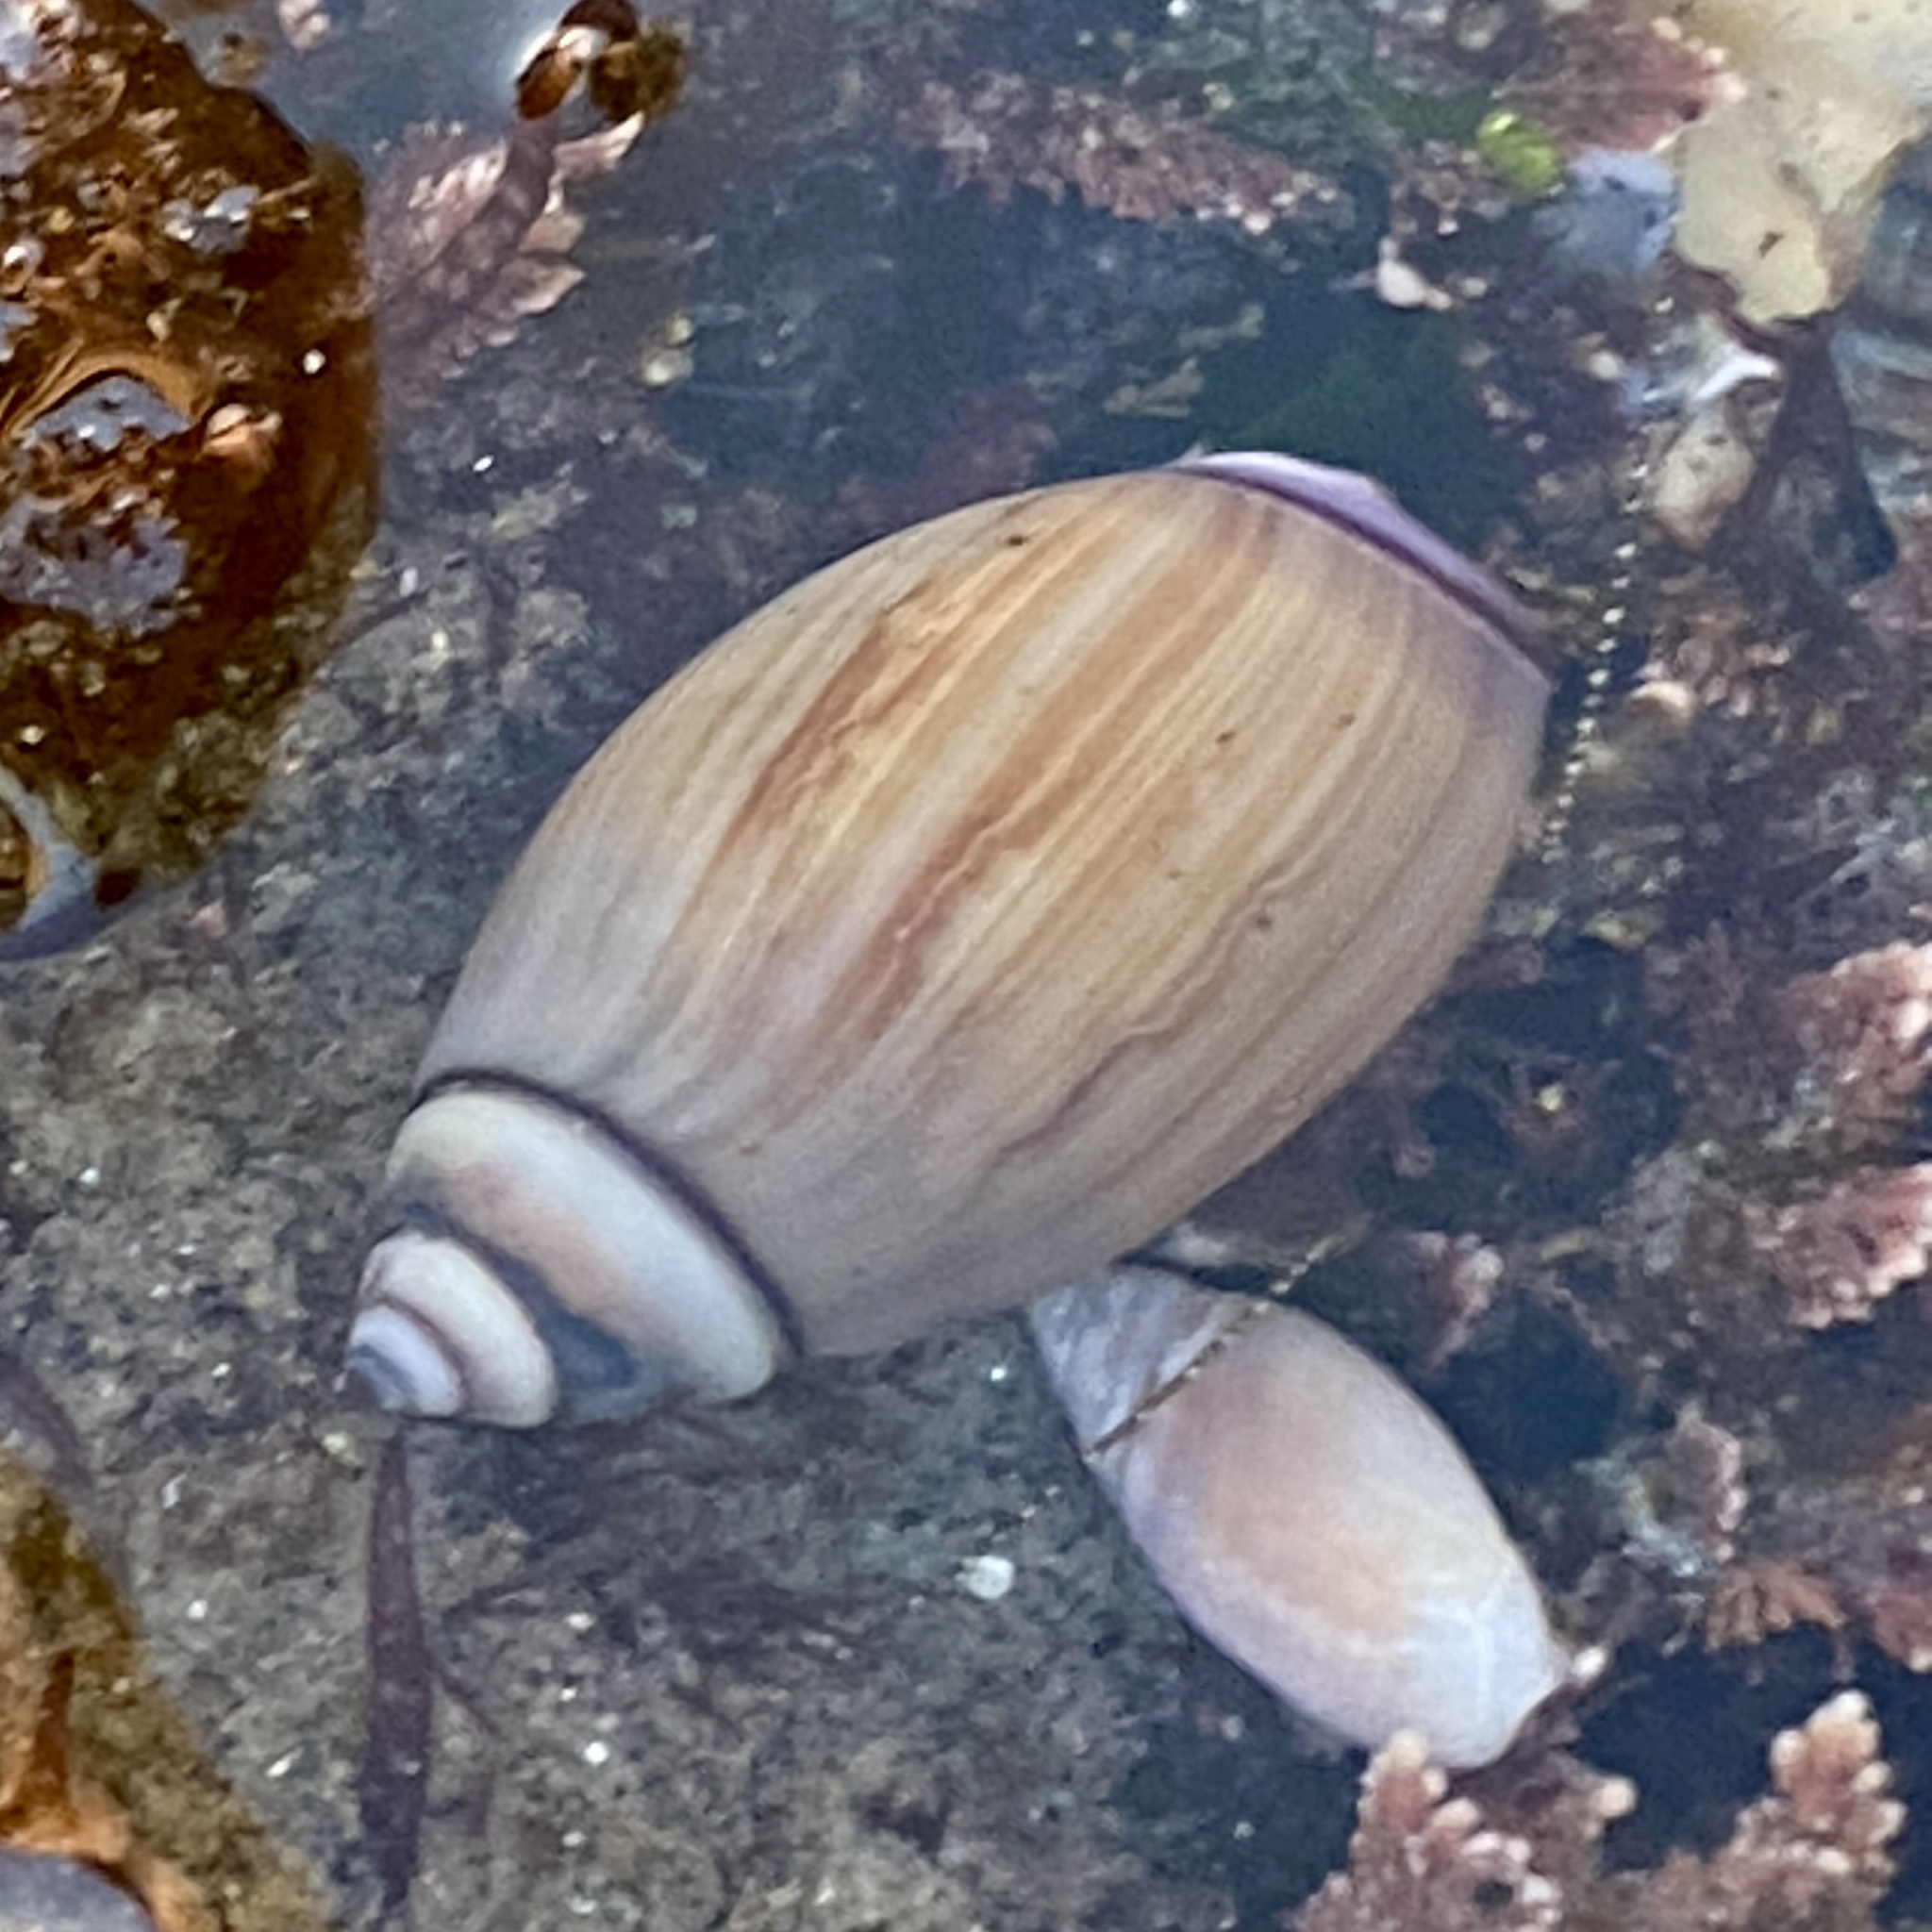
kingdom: Animalia
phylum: Arthropoda
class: Malacostraca
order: Decapoda
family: Paguridae
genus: Pagurus
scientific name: Pagurus venturensis
